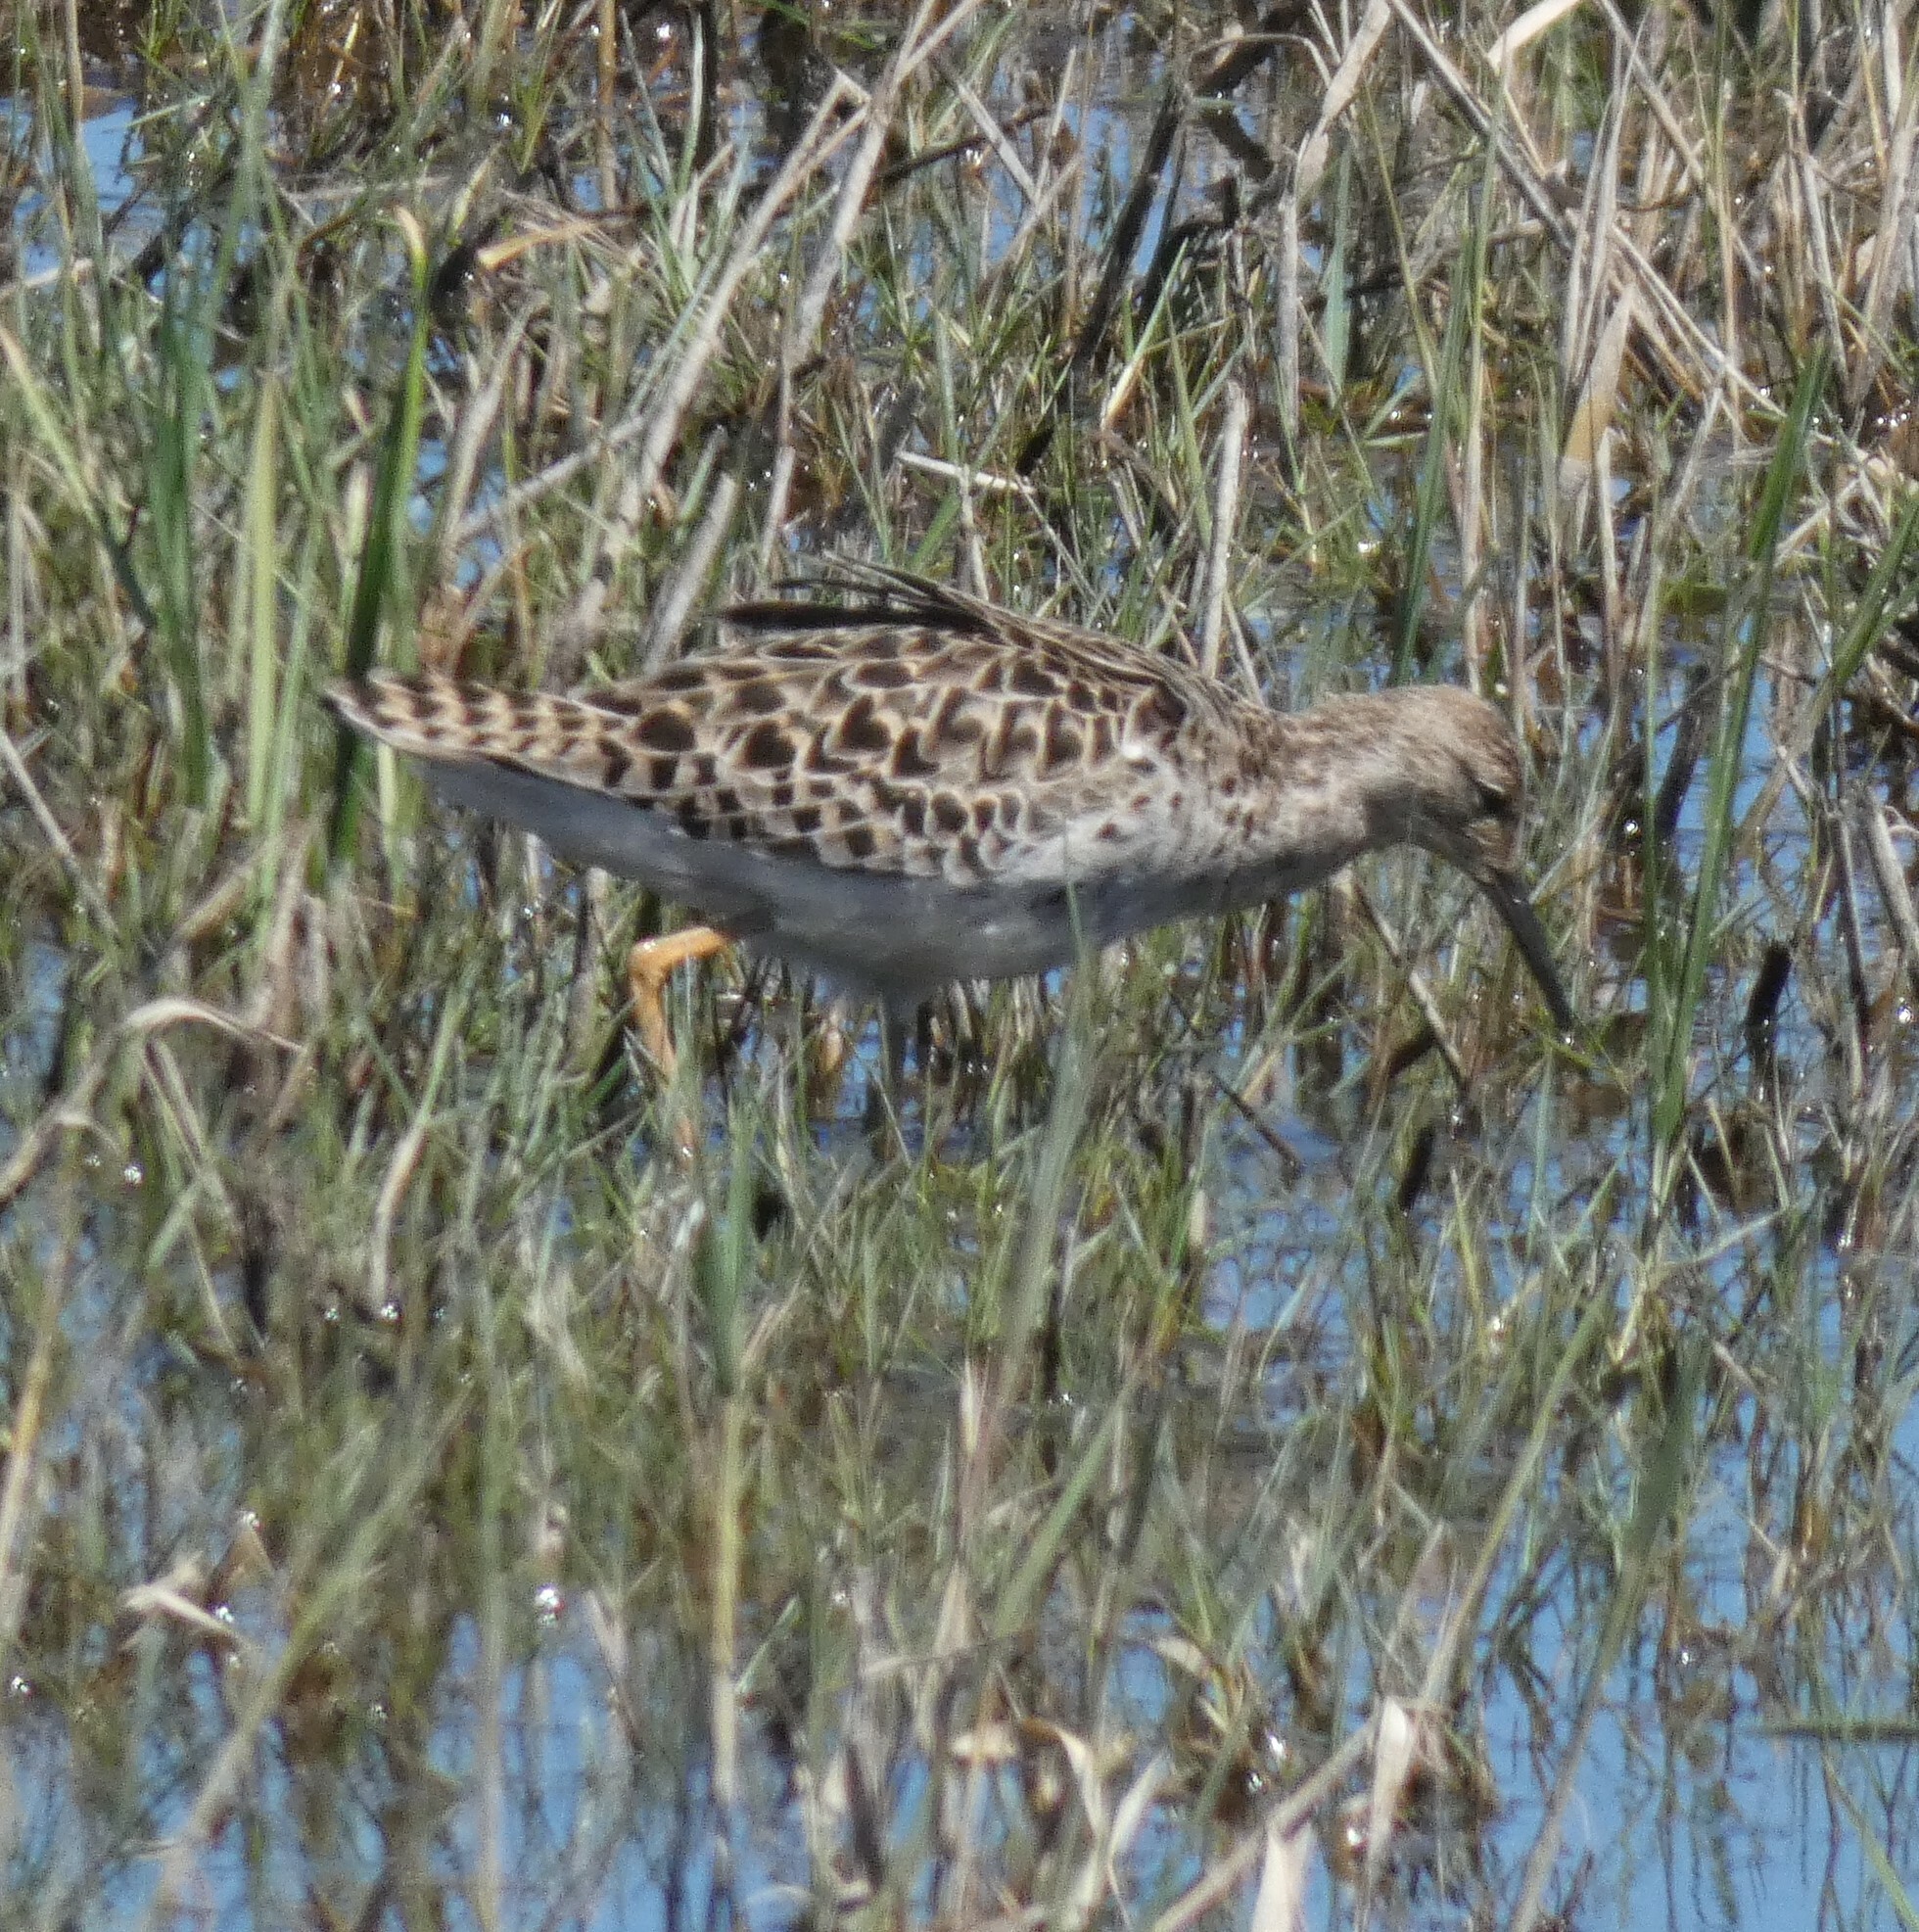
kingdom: Animalia
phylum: Chordata
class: Aves
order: Charadriiformes
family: Scolopacidae
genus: Calidris
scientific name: Calidris pugnax
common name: Ruff
